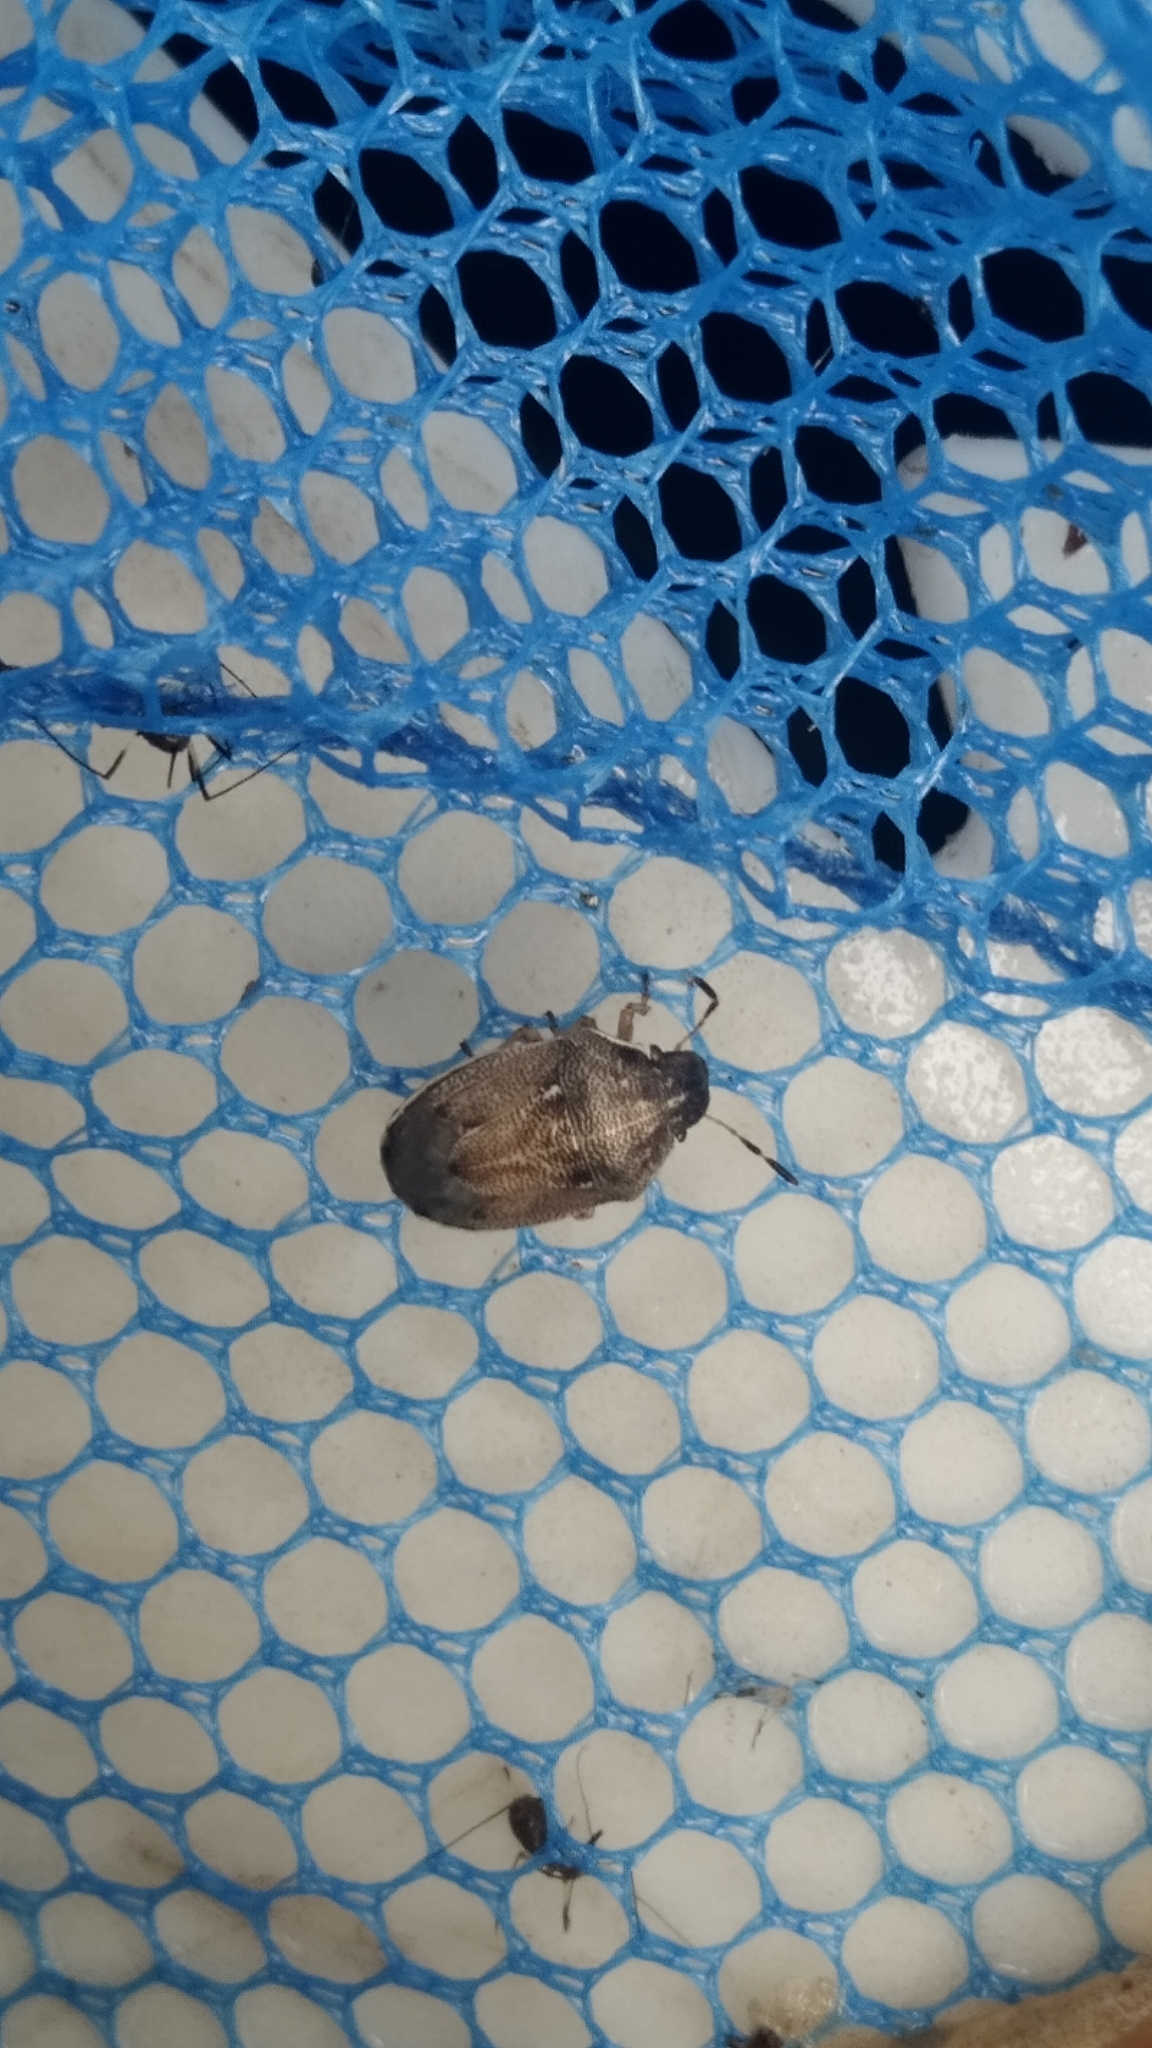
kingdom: Animalia
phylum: Arthropoda
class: Insecta
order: Hemiptera
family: Pentatomidae
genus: Neottiglossa
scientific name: Neottiglossa pusilla
